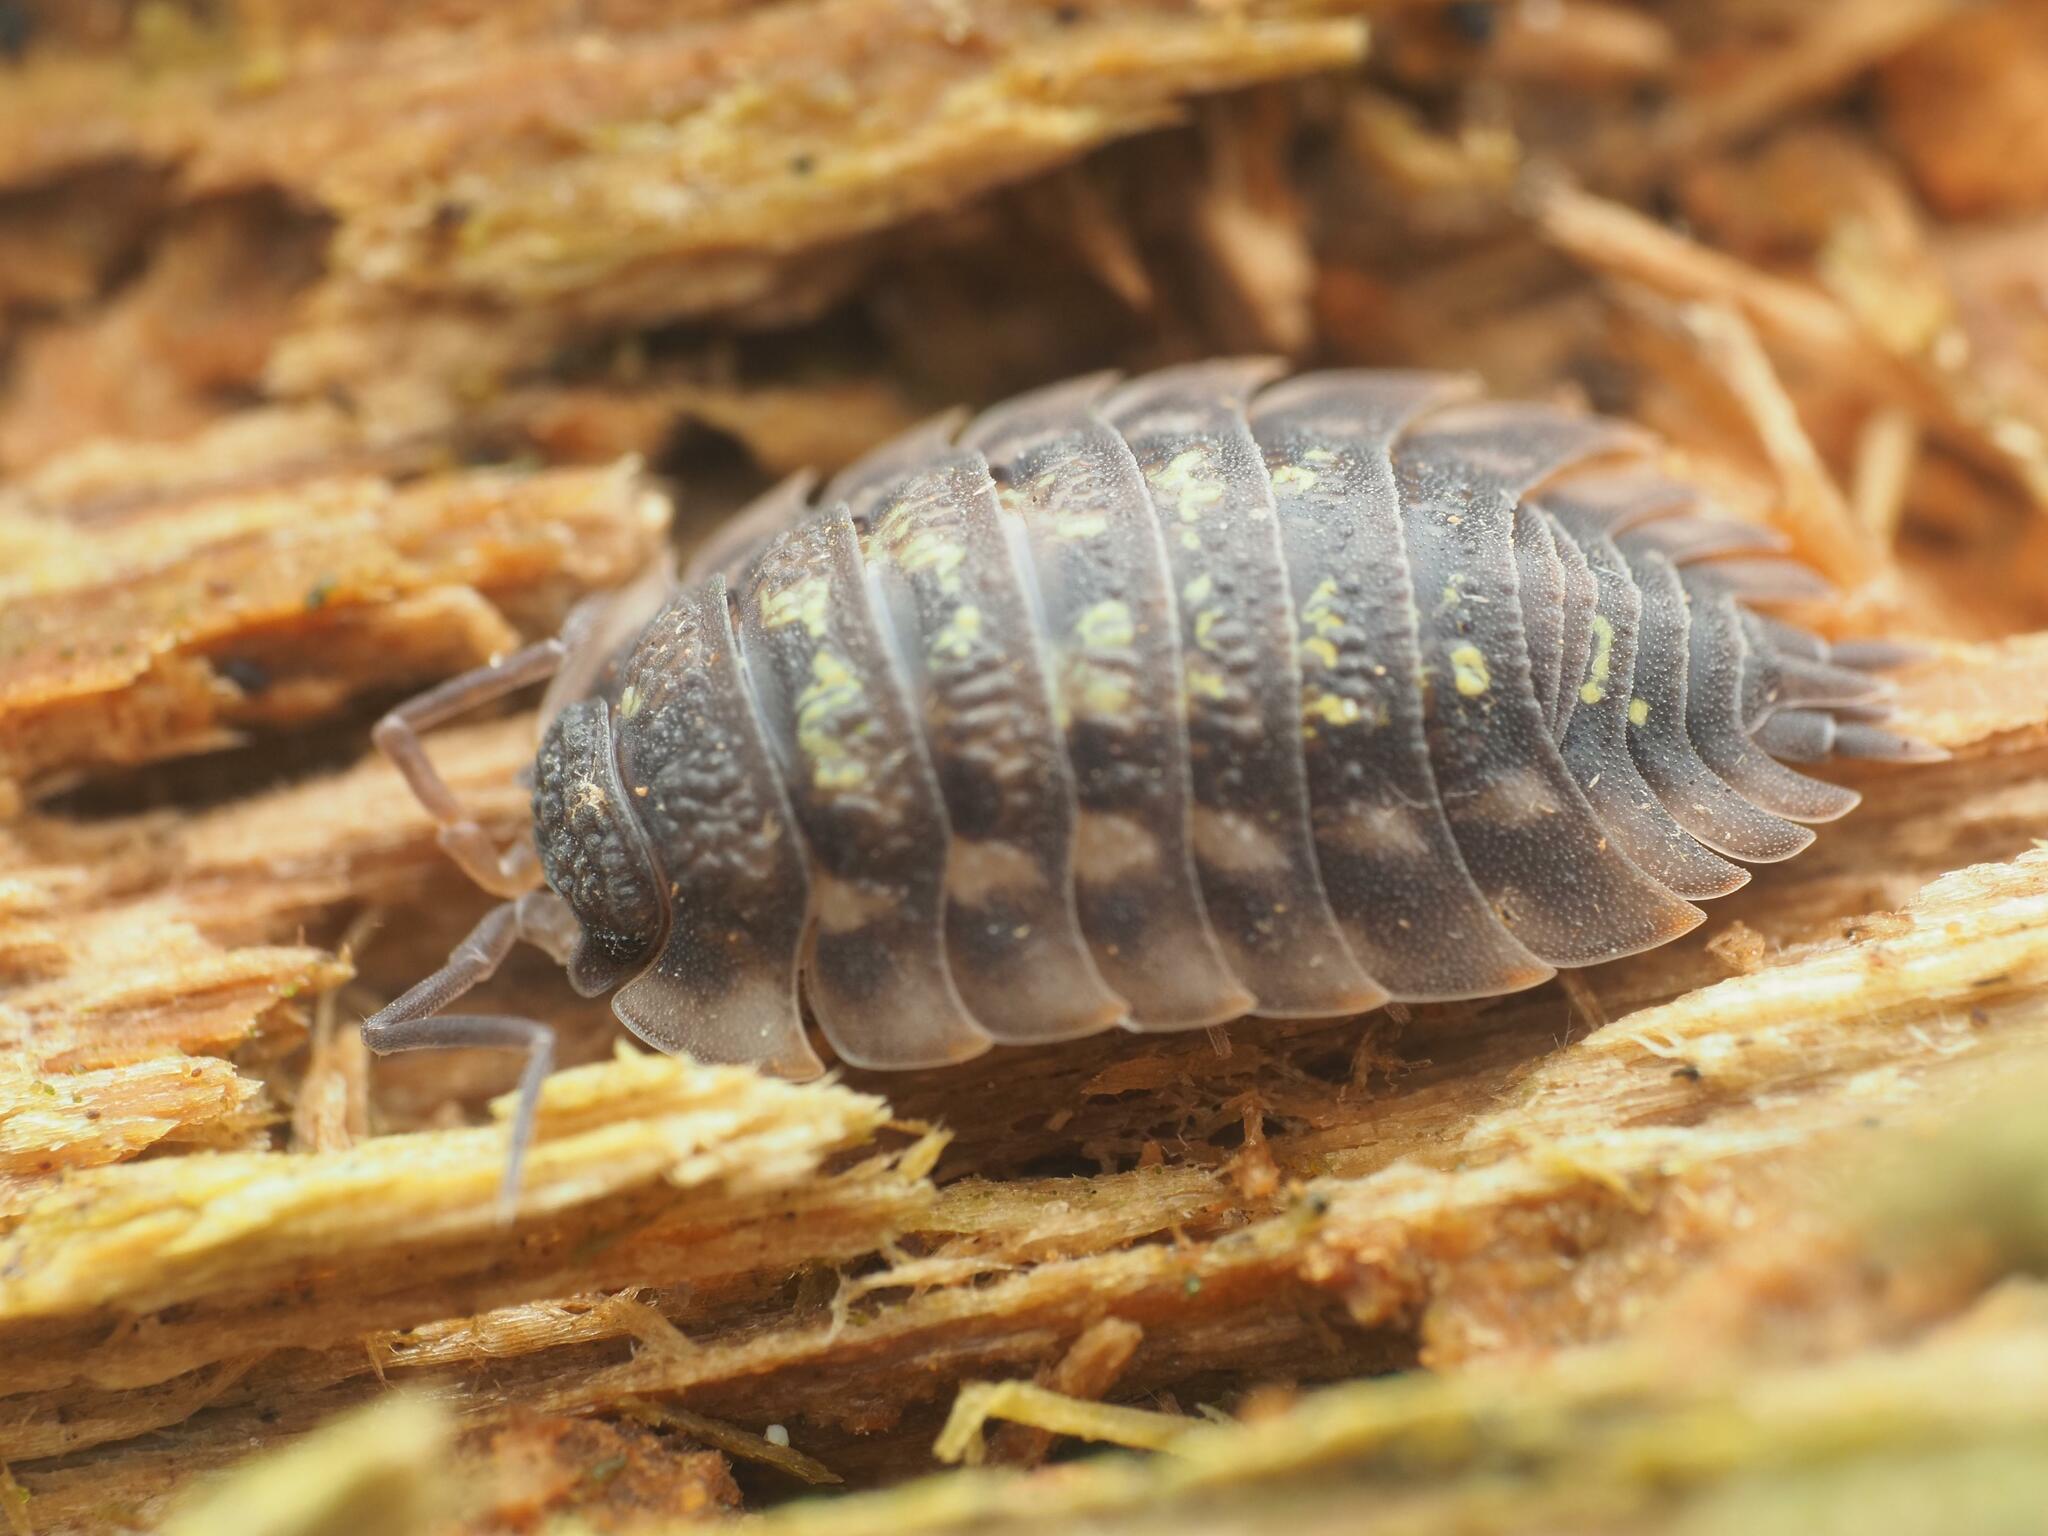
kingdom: Animalia
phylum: Arthropoda
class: Malacostraca
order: Isopoda
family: Oniscidae
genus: Oniscus
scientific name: Oniscus asellus
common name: Common shiny woodlouse
